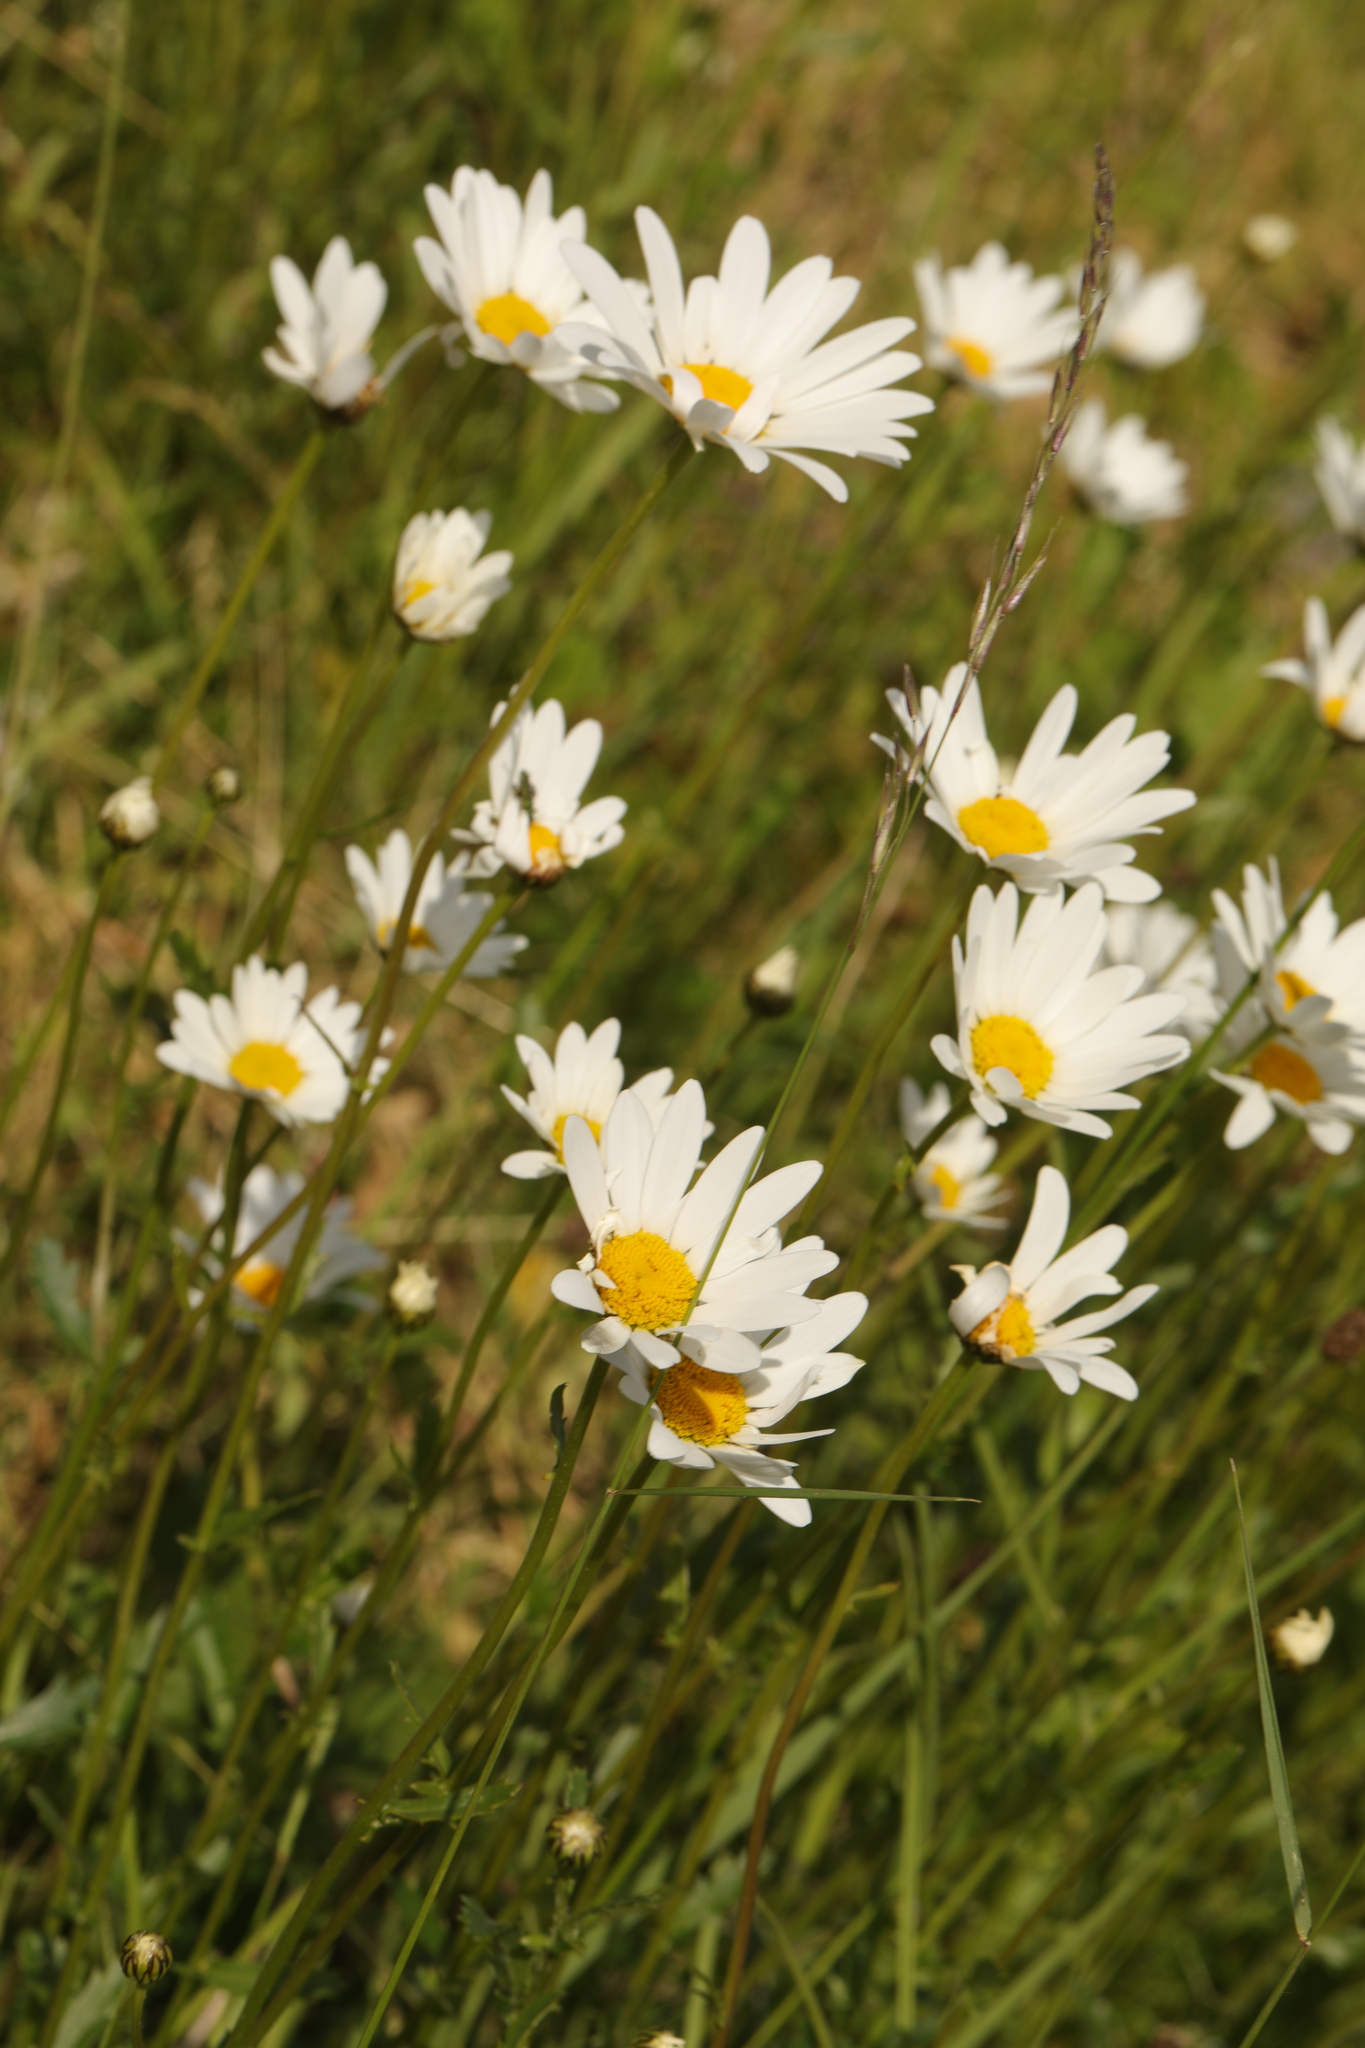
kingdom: Plantae
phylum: Tracheophyta
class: Magnoliopsida
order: Asterales
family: Asteraceae
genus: Leucanthemum
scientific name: Leucanthemum vulgare
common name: Oxeye daisy
